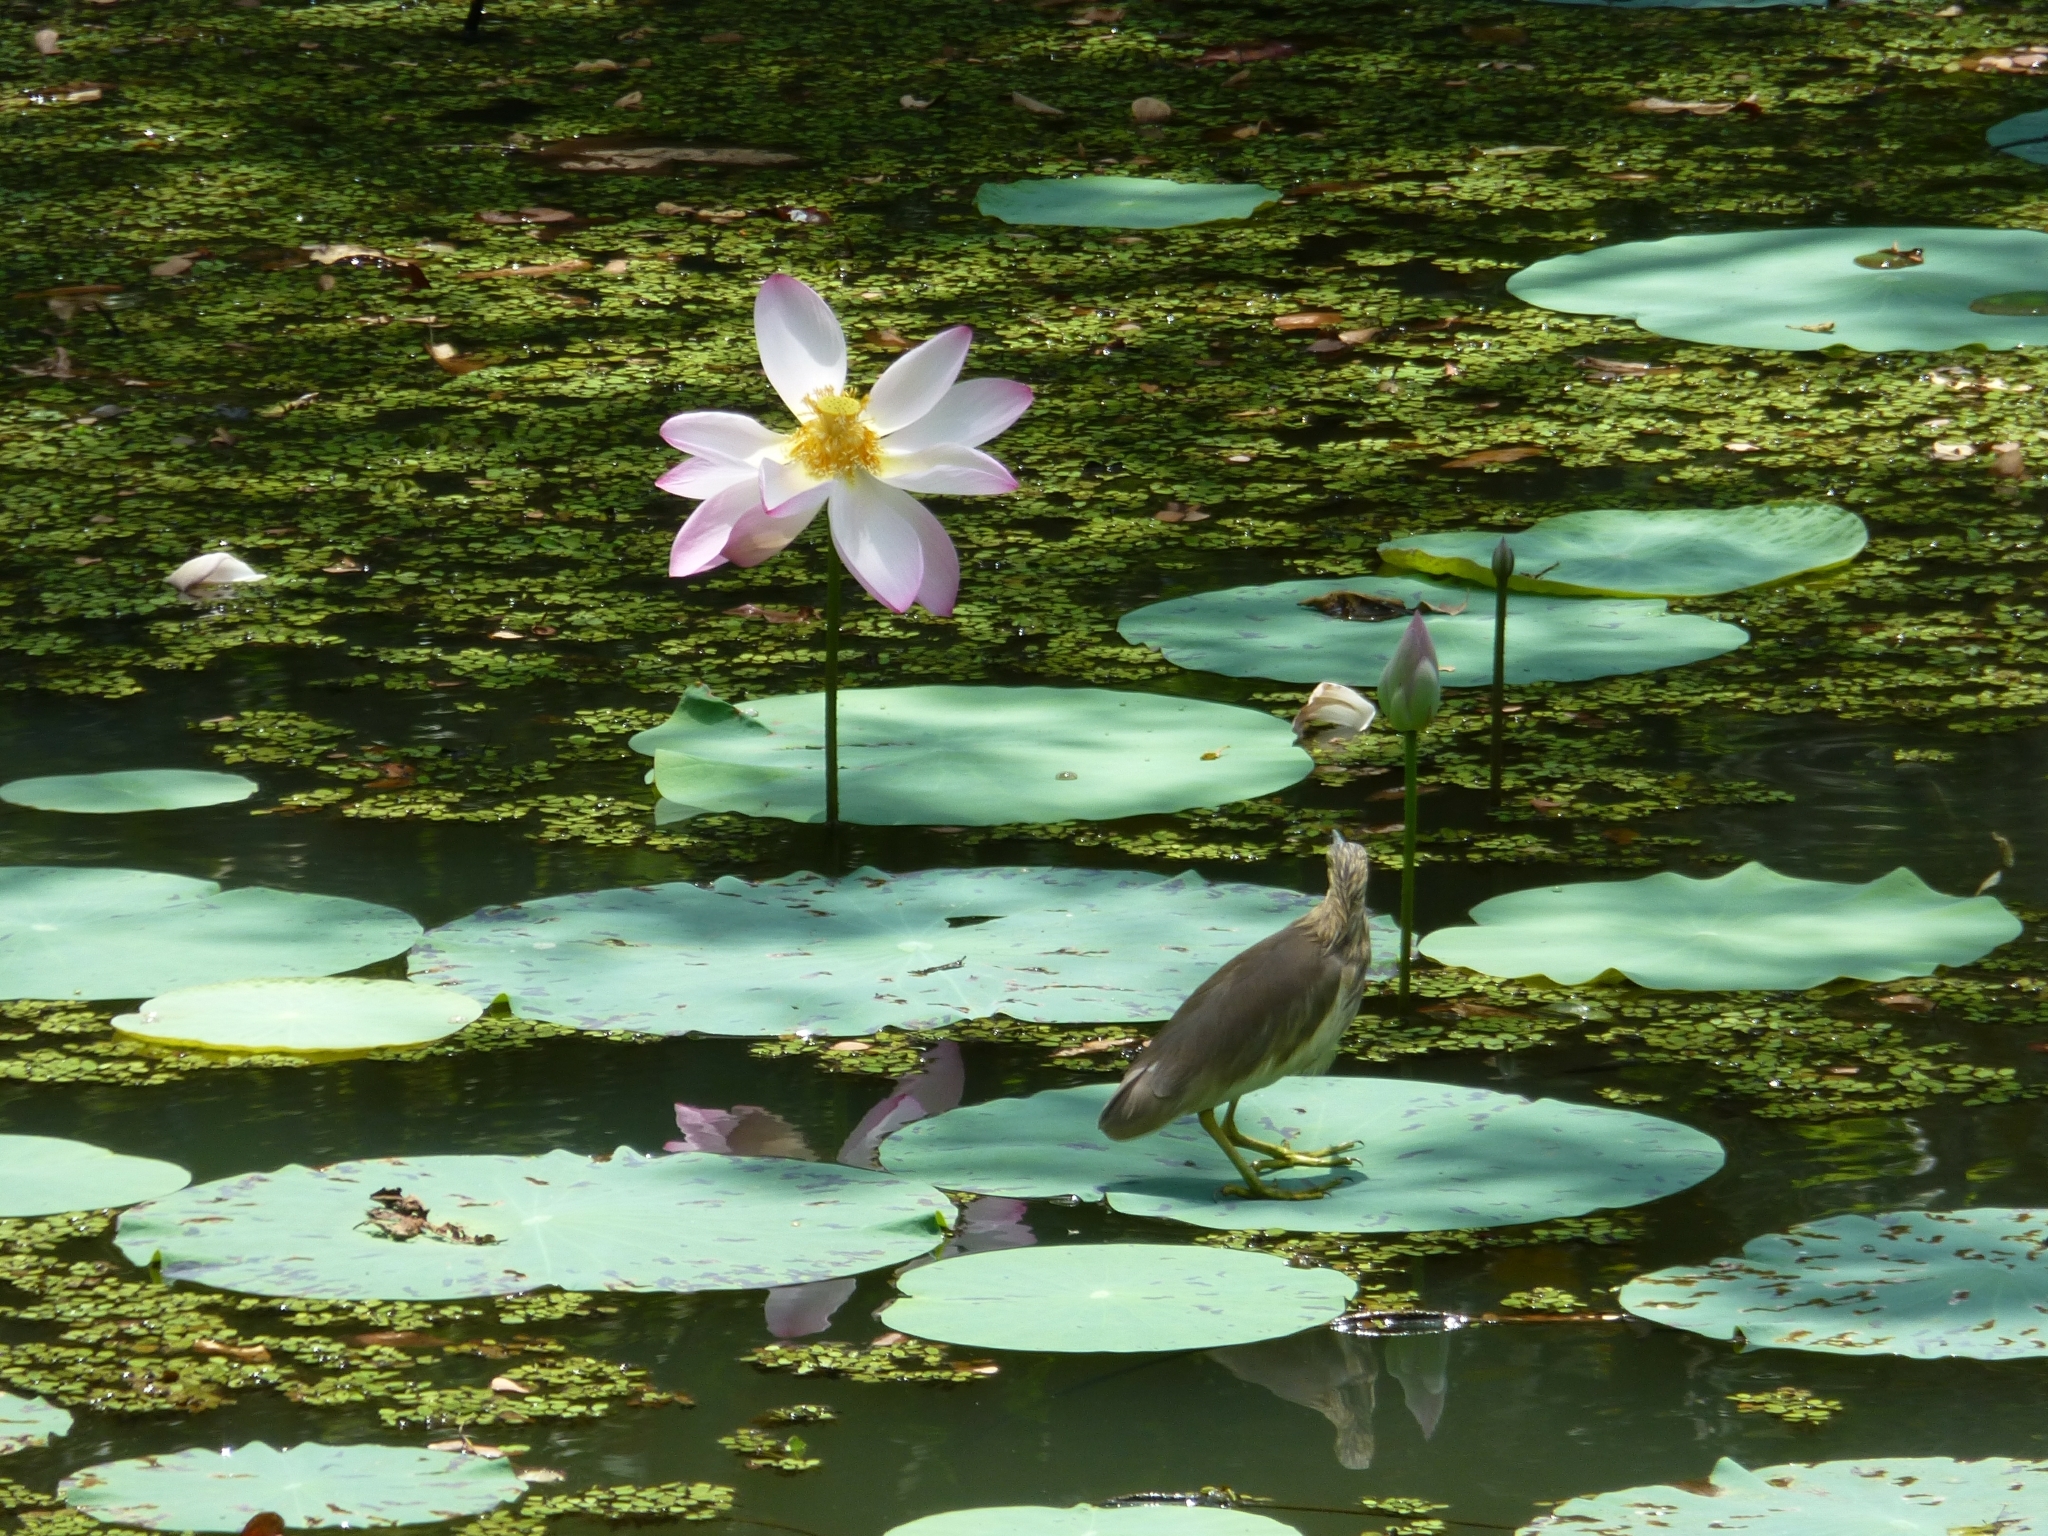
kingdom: Plantae
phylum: Tracheophyta
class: Magnoliopsida
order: Proteales
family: Nelumbonaceae
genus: Nelumbo
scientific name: Nelumbo nucifera
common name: Sacred lotus
